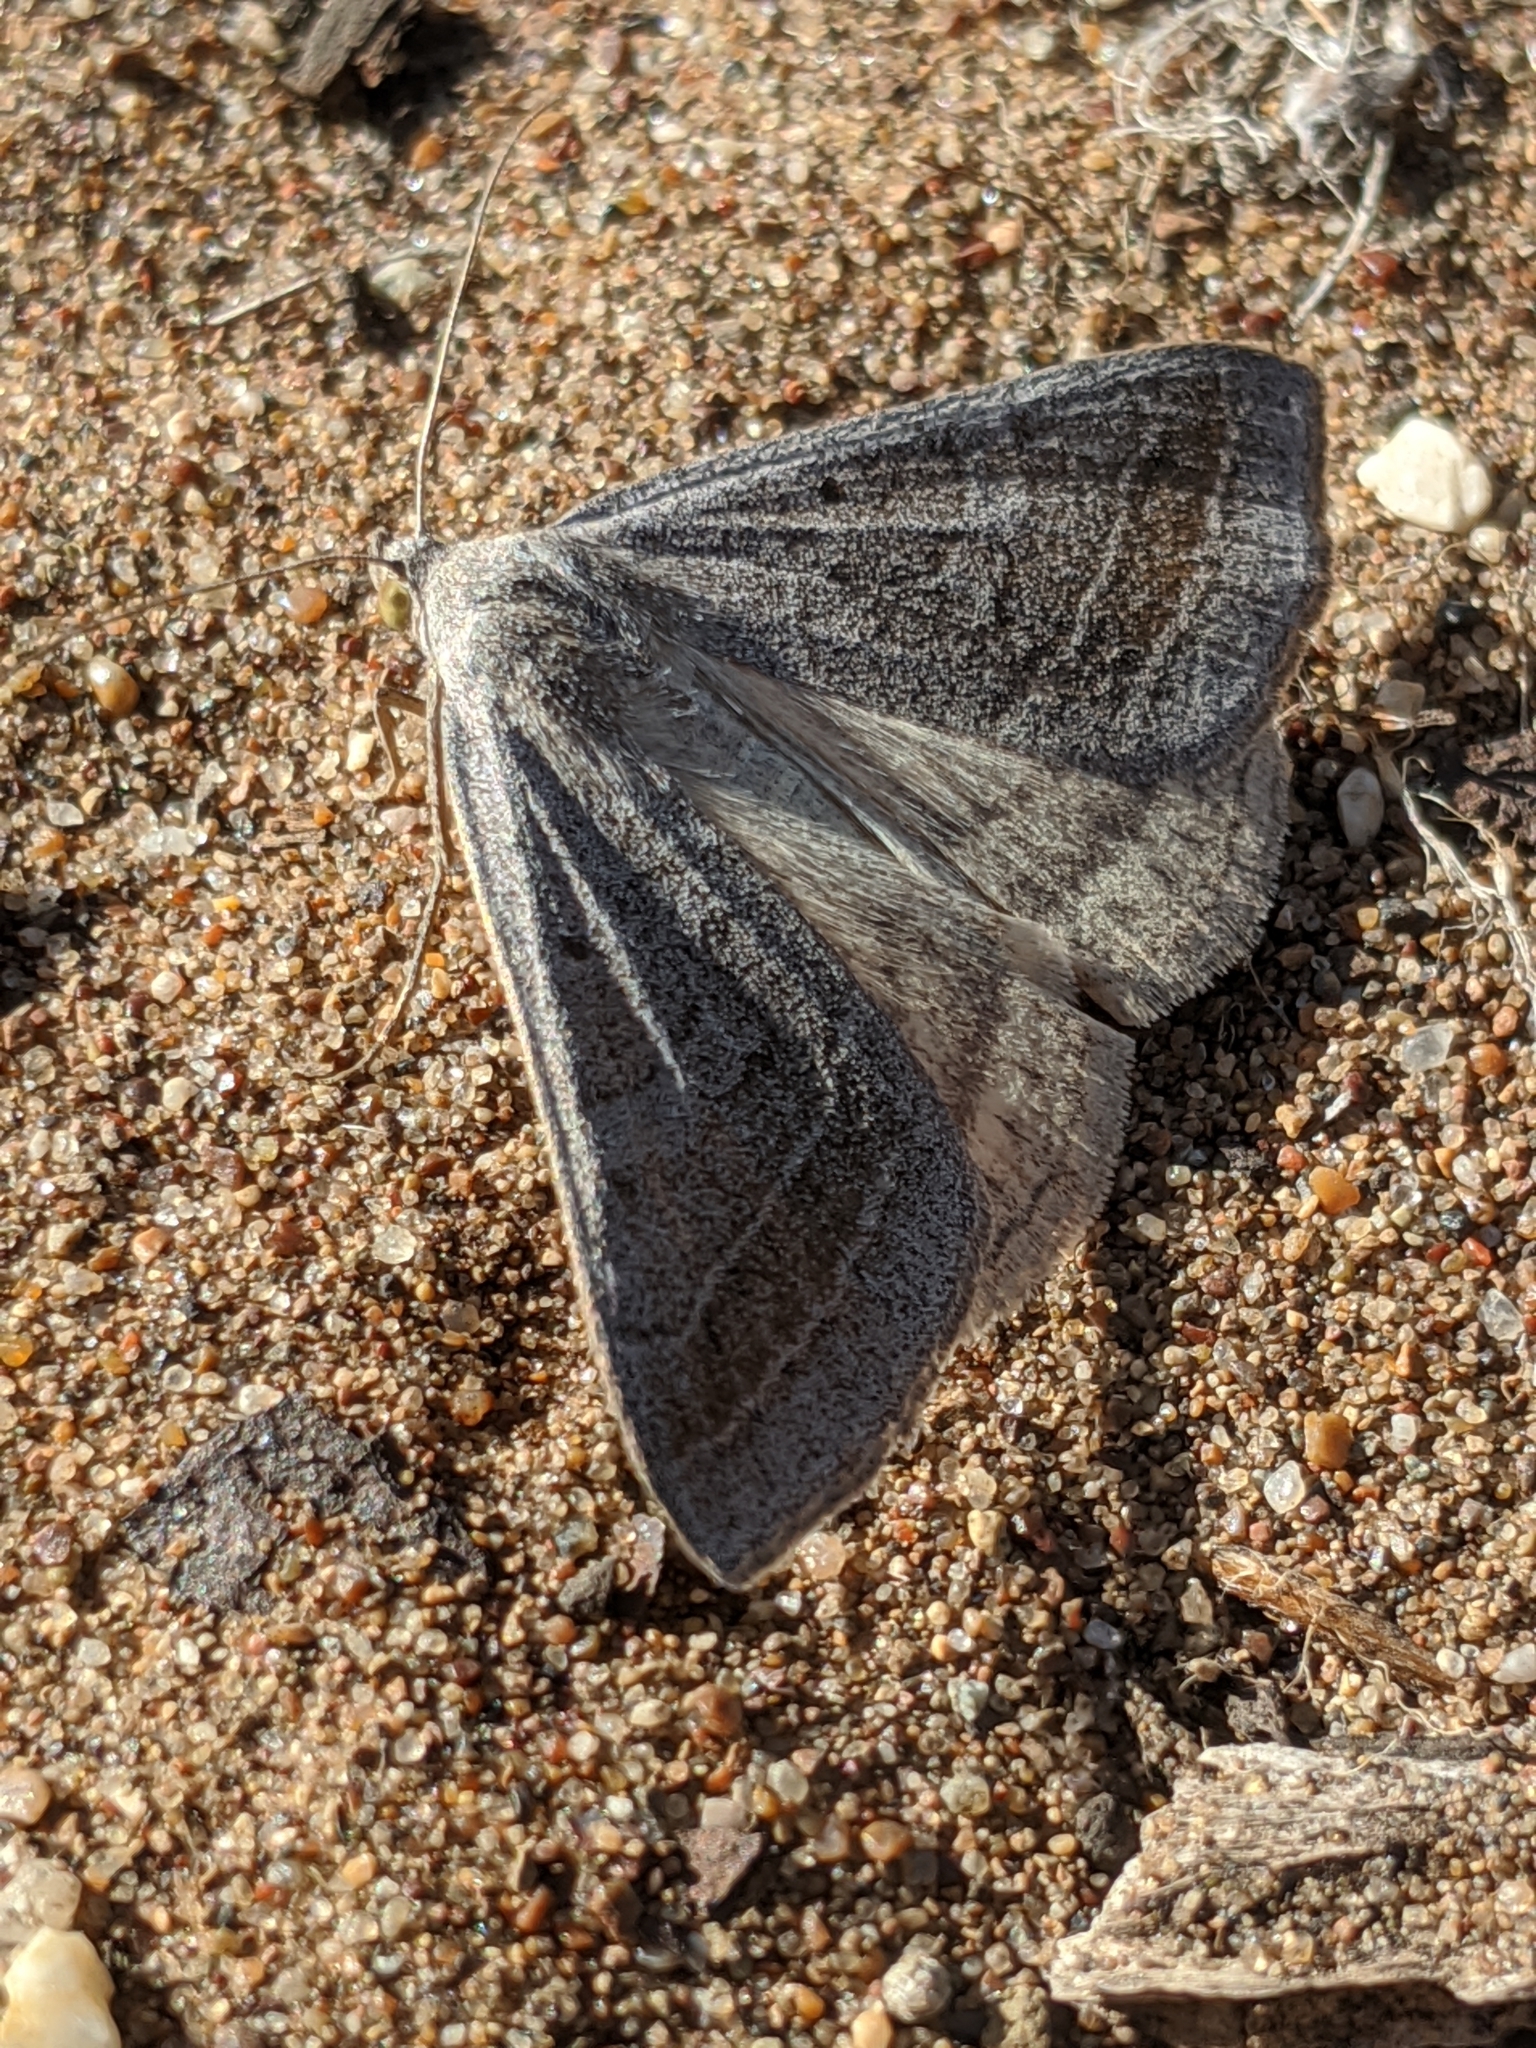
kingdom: Animalia
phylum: Arthropoda
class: Insecta
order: Lepidoptera
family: Erebidae
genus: Caenurgia
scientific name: Caenurgia togataria
